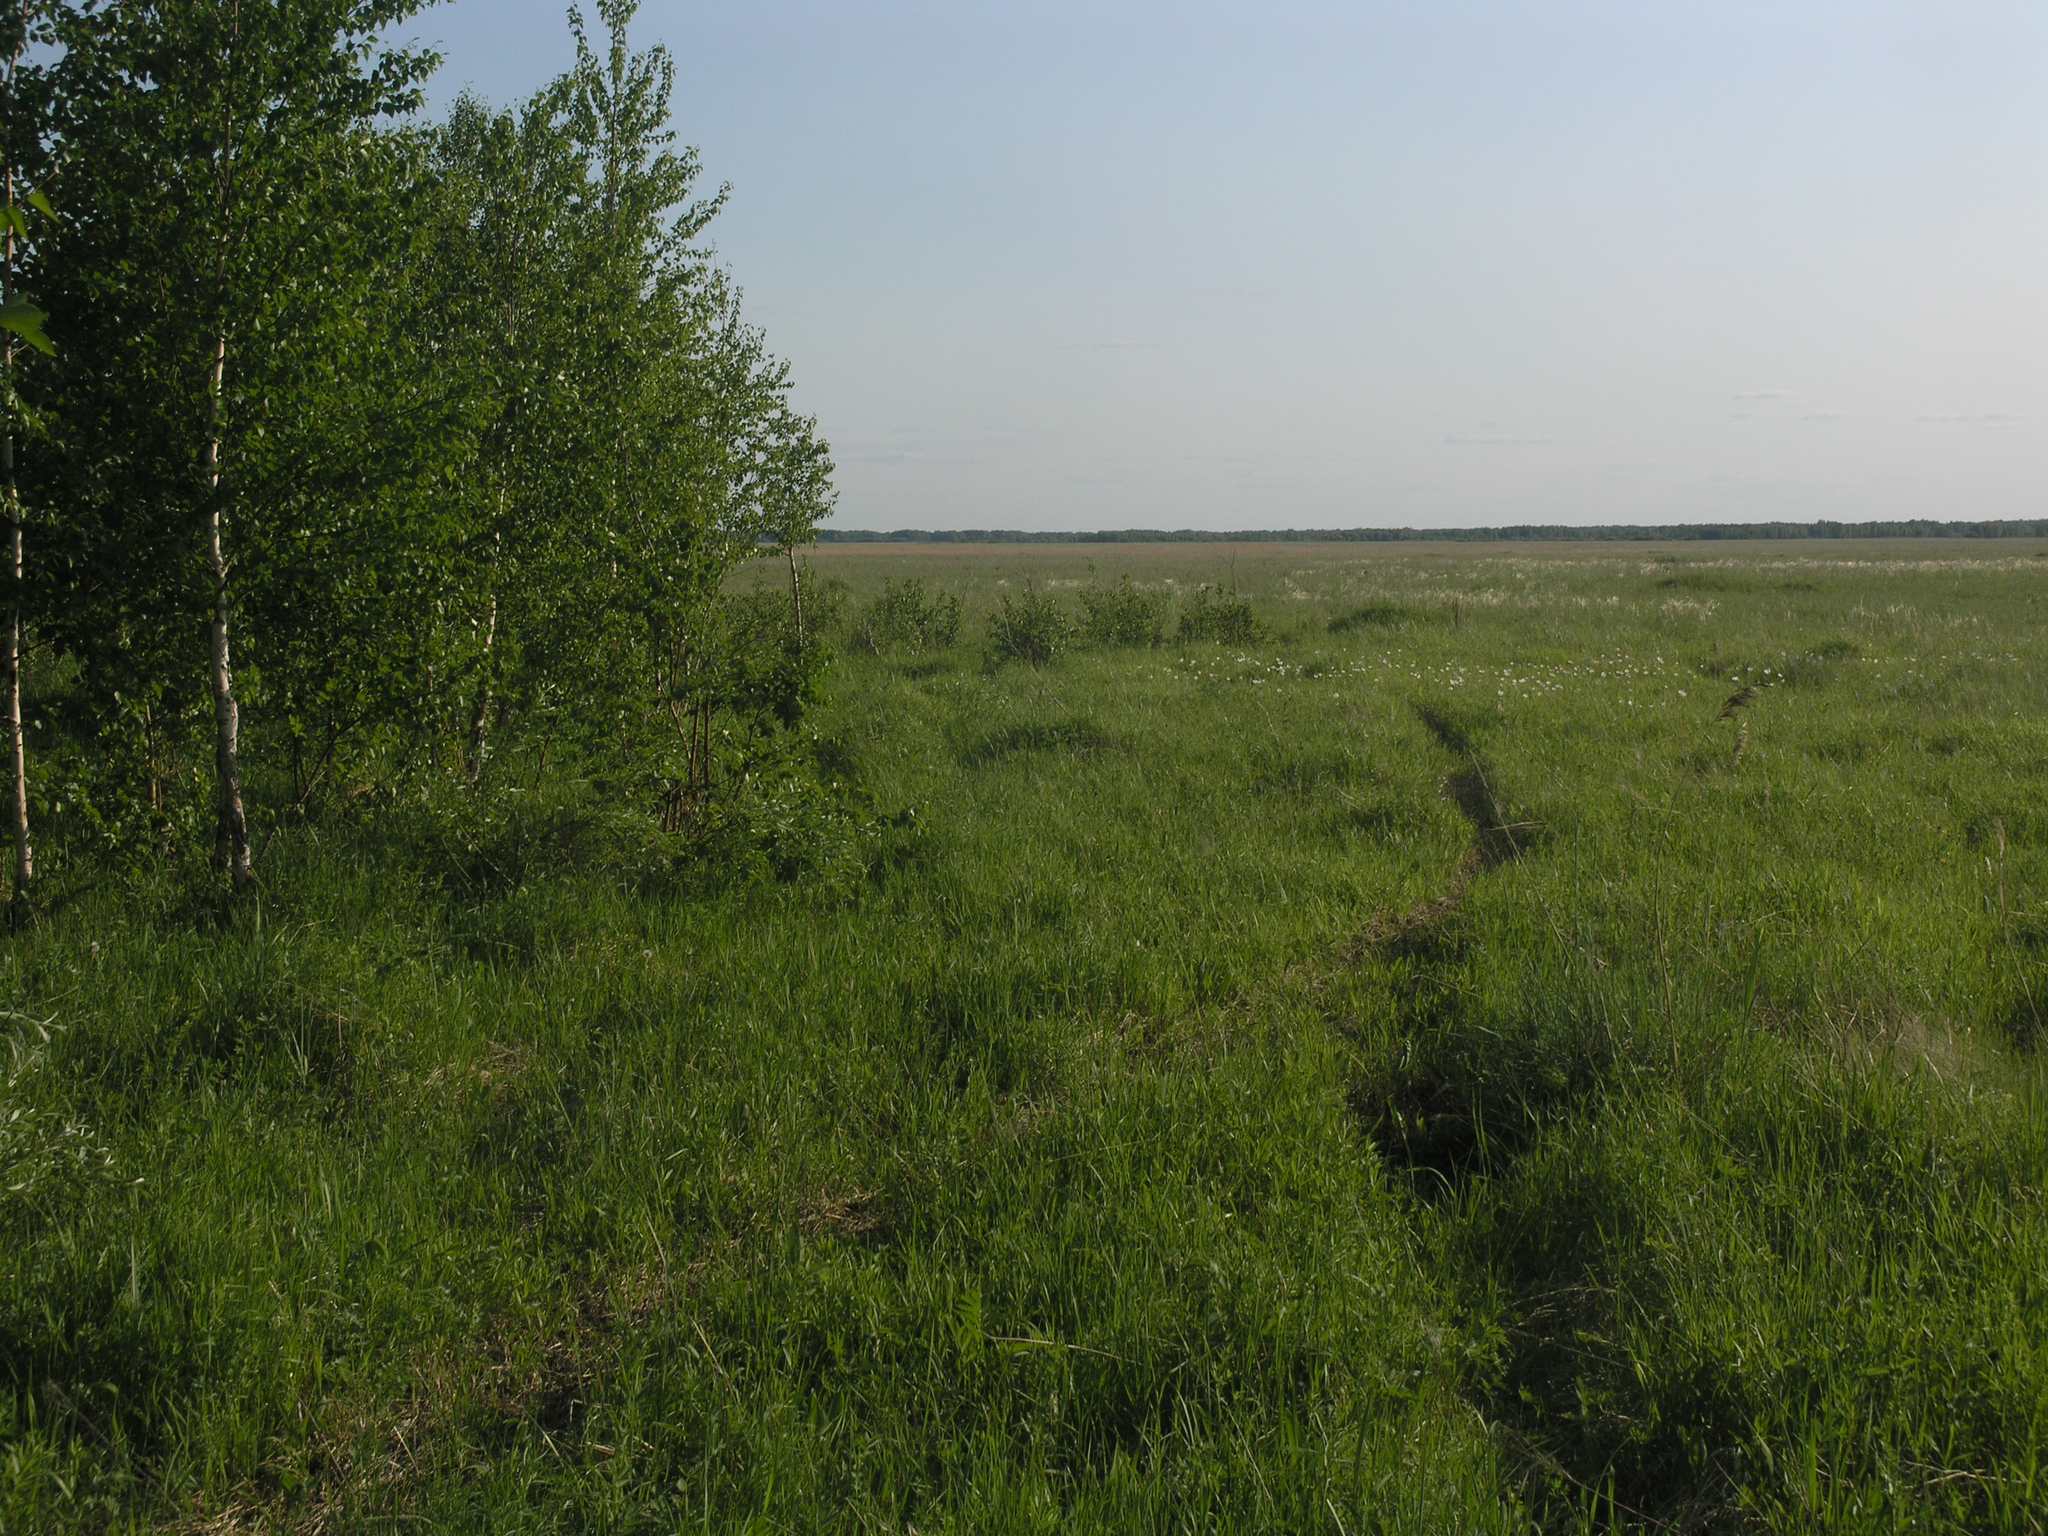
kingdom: Plantae
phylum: Tracheophyta
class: Magnoliopsida
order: Fagales
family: Betulaceae
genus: Betula
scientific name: Betula pendula
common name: Silver birch
